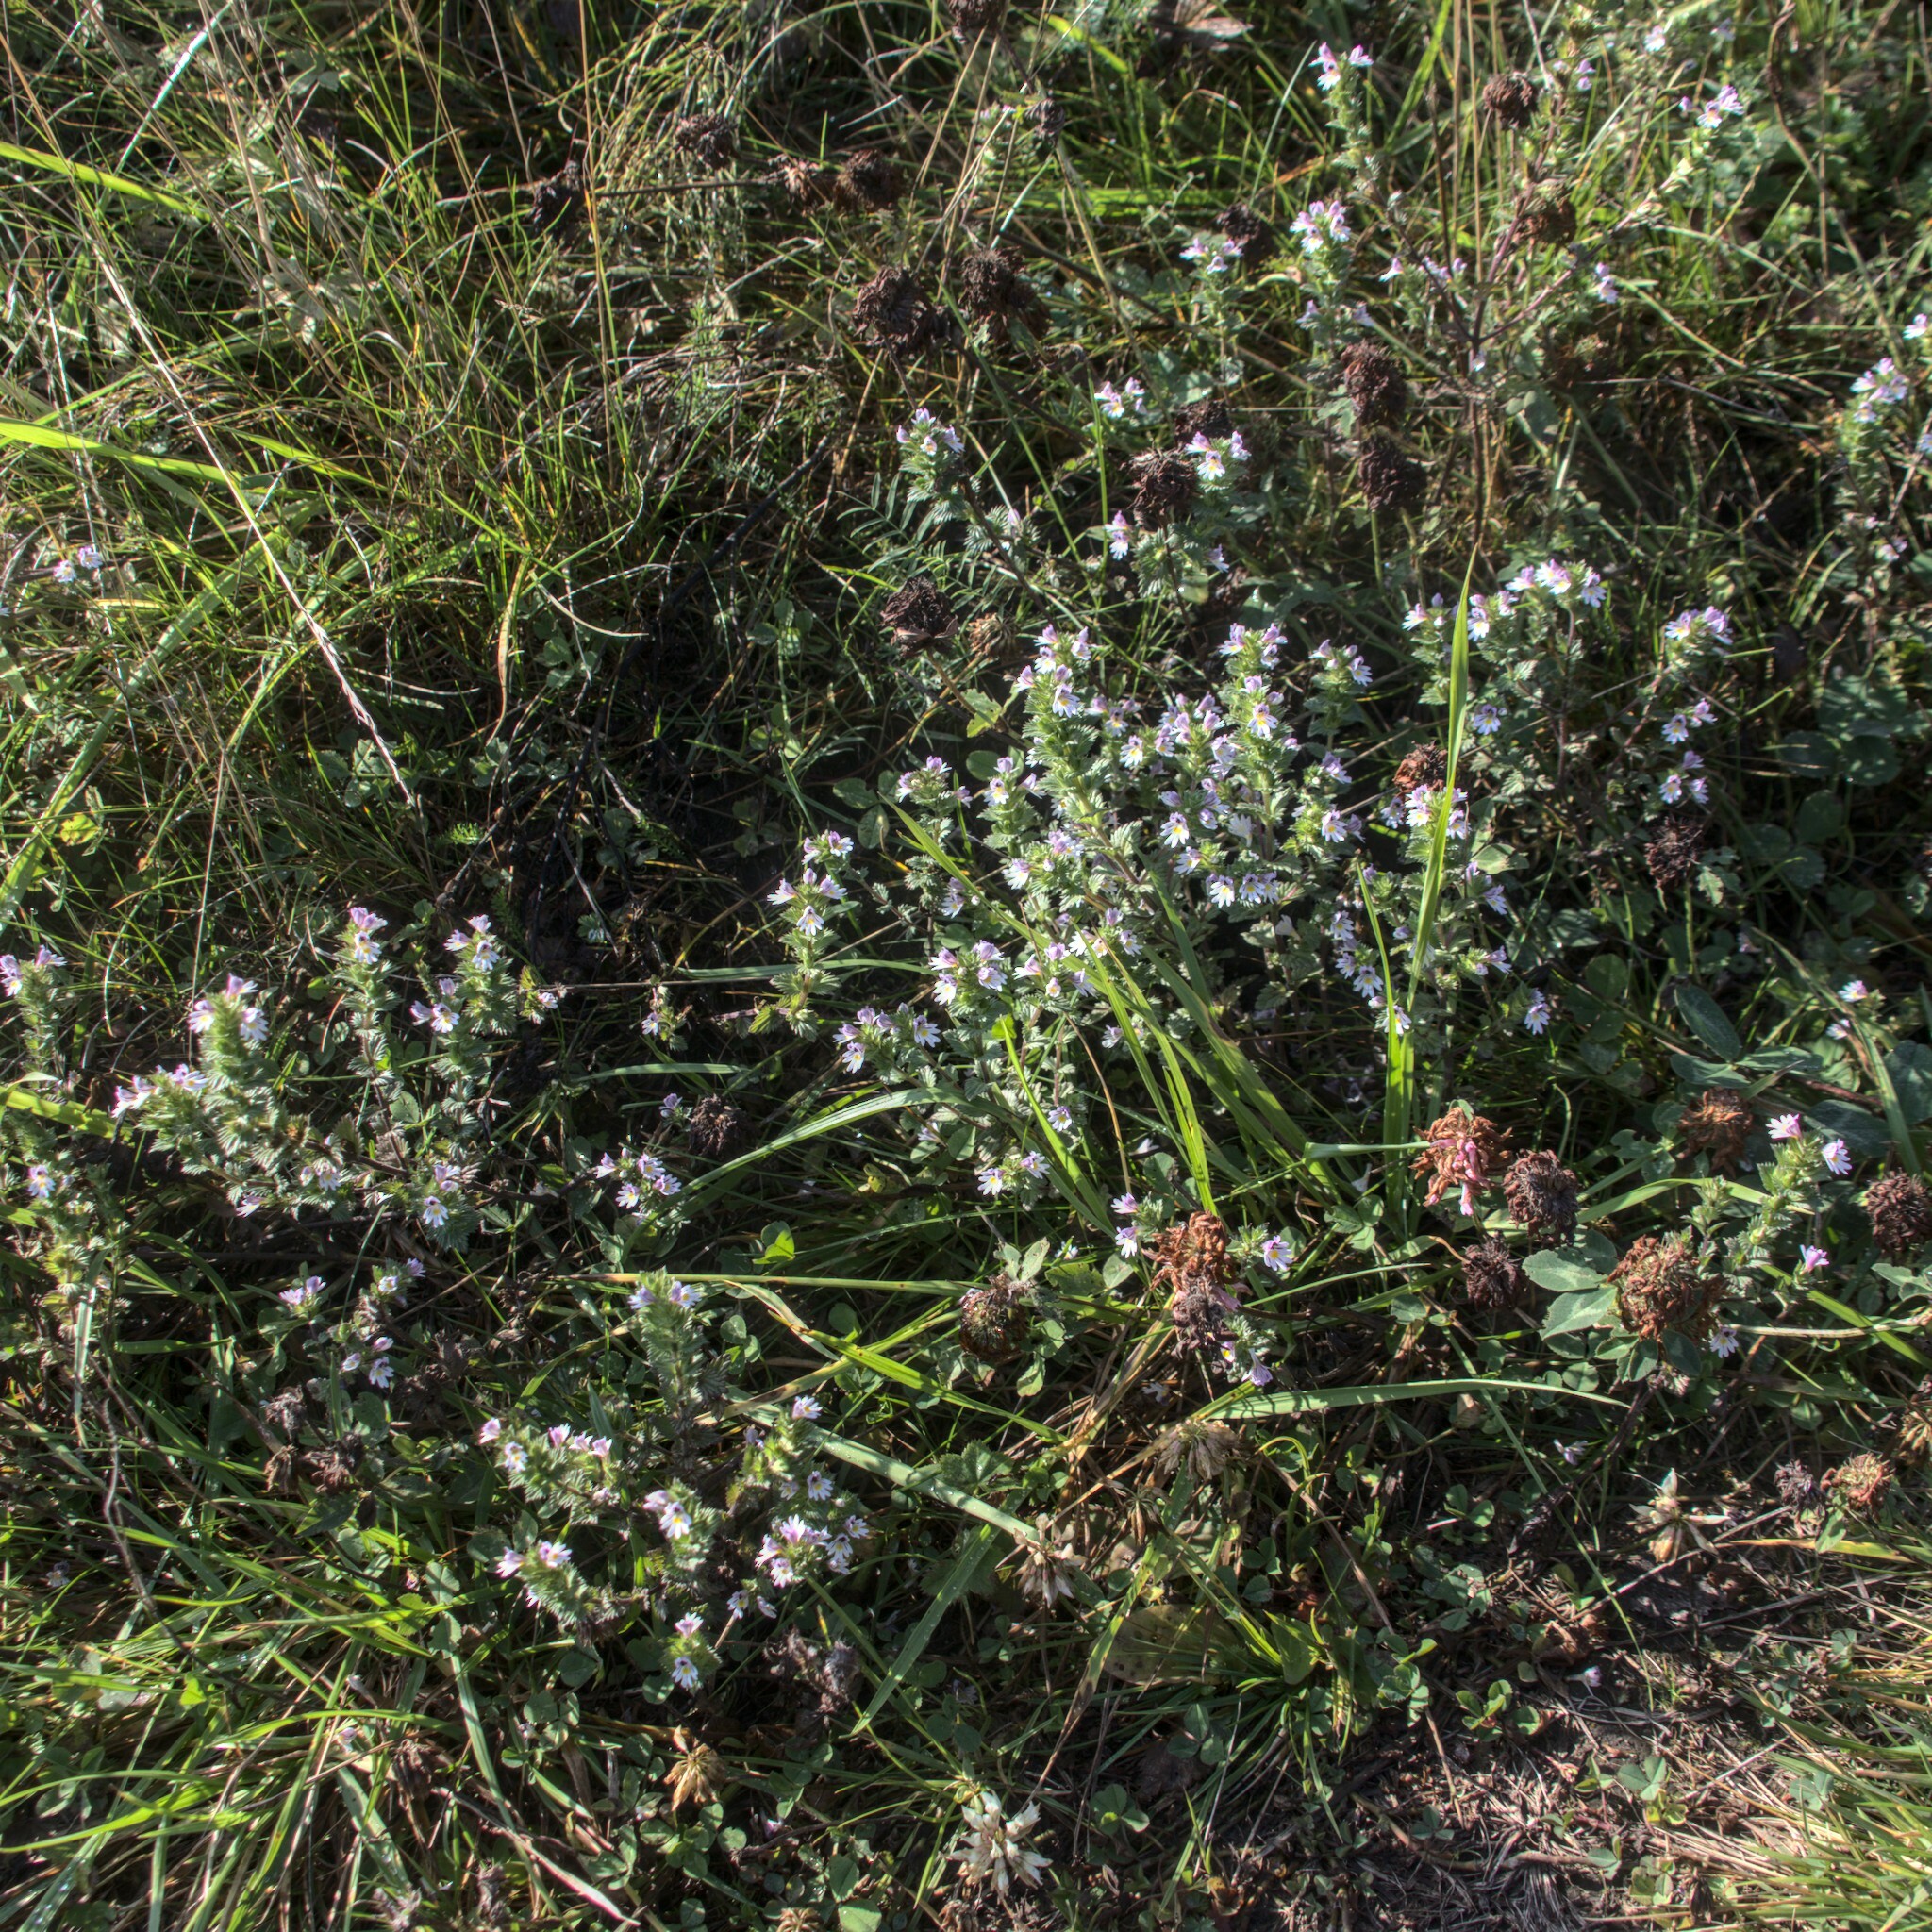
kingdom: Plantae
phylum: Tracheophyta
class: Magnoliopsida
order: Lamiales
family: Orobanchaceae
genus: Euphrasia
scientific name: Euphrasia stricta
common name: Drug eyebright
